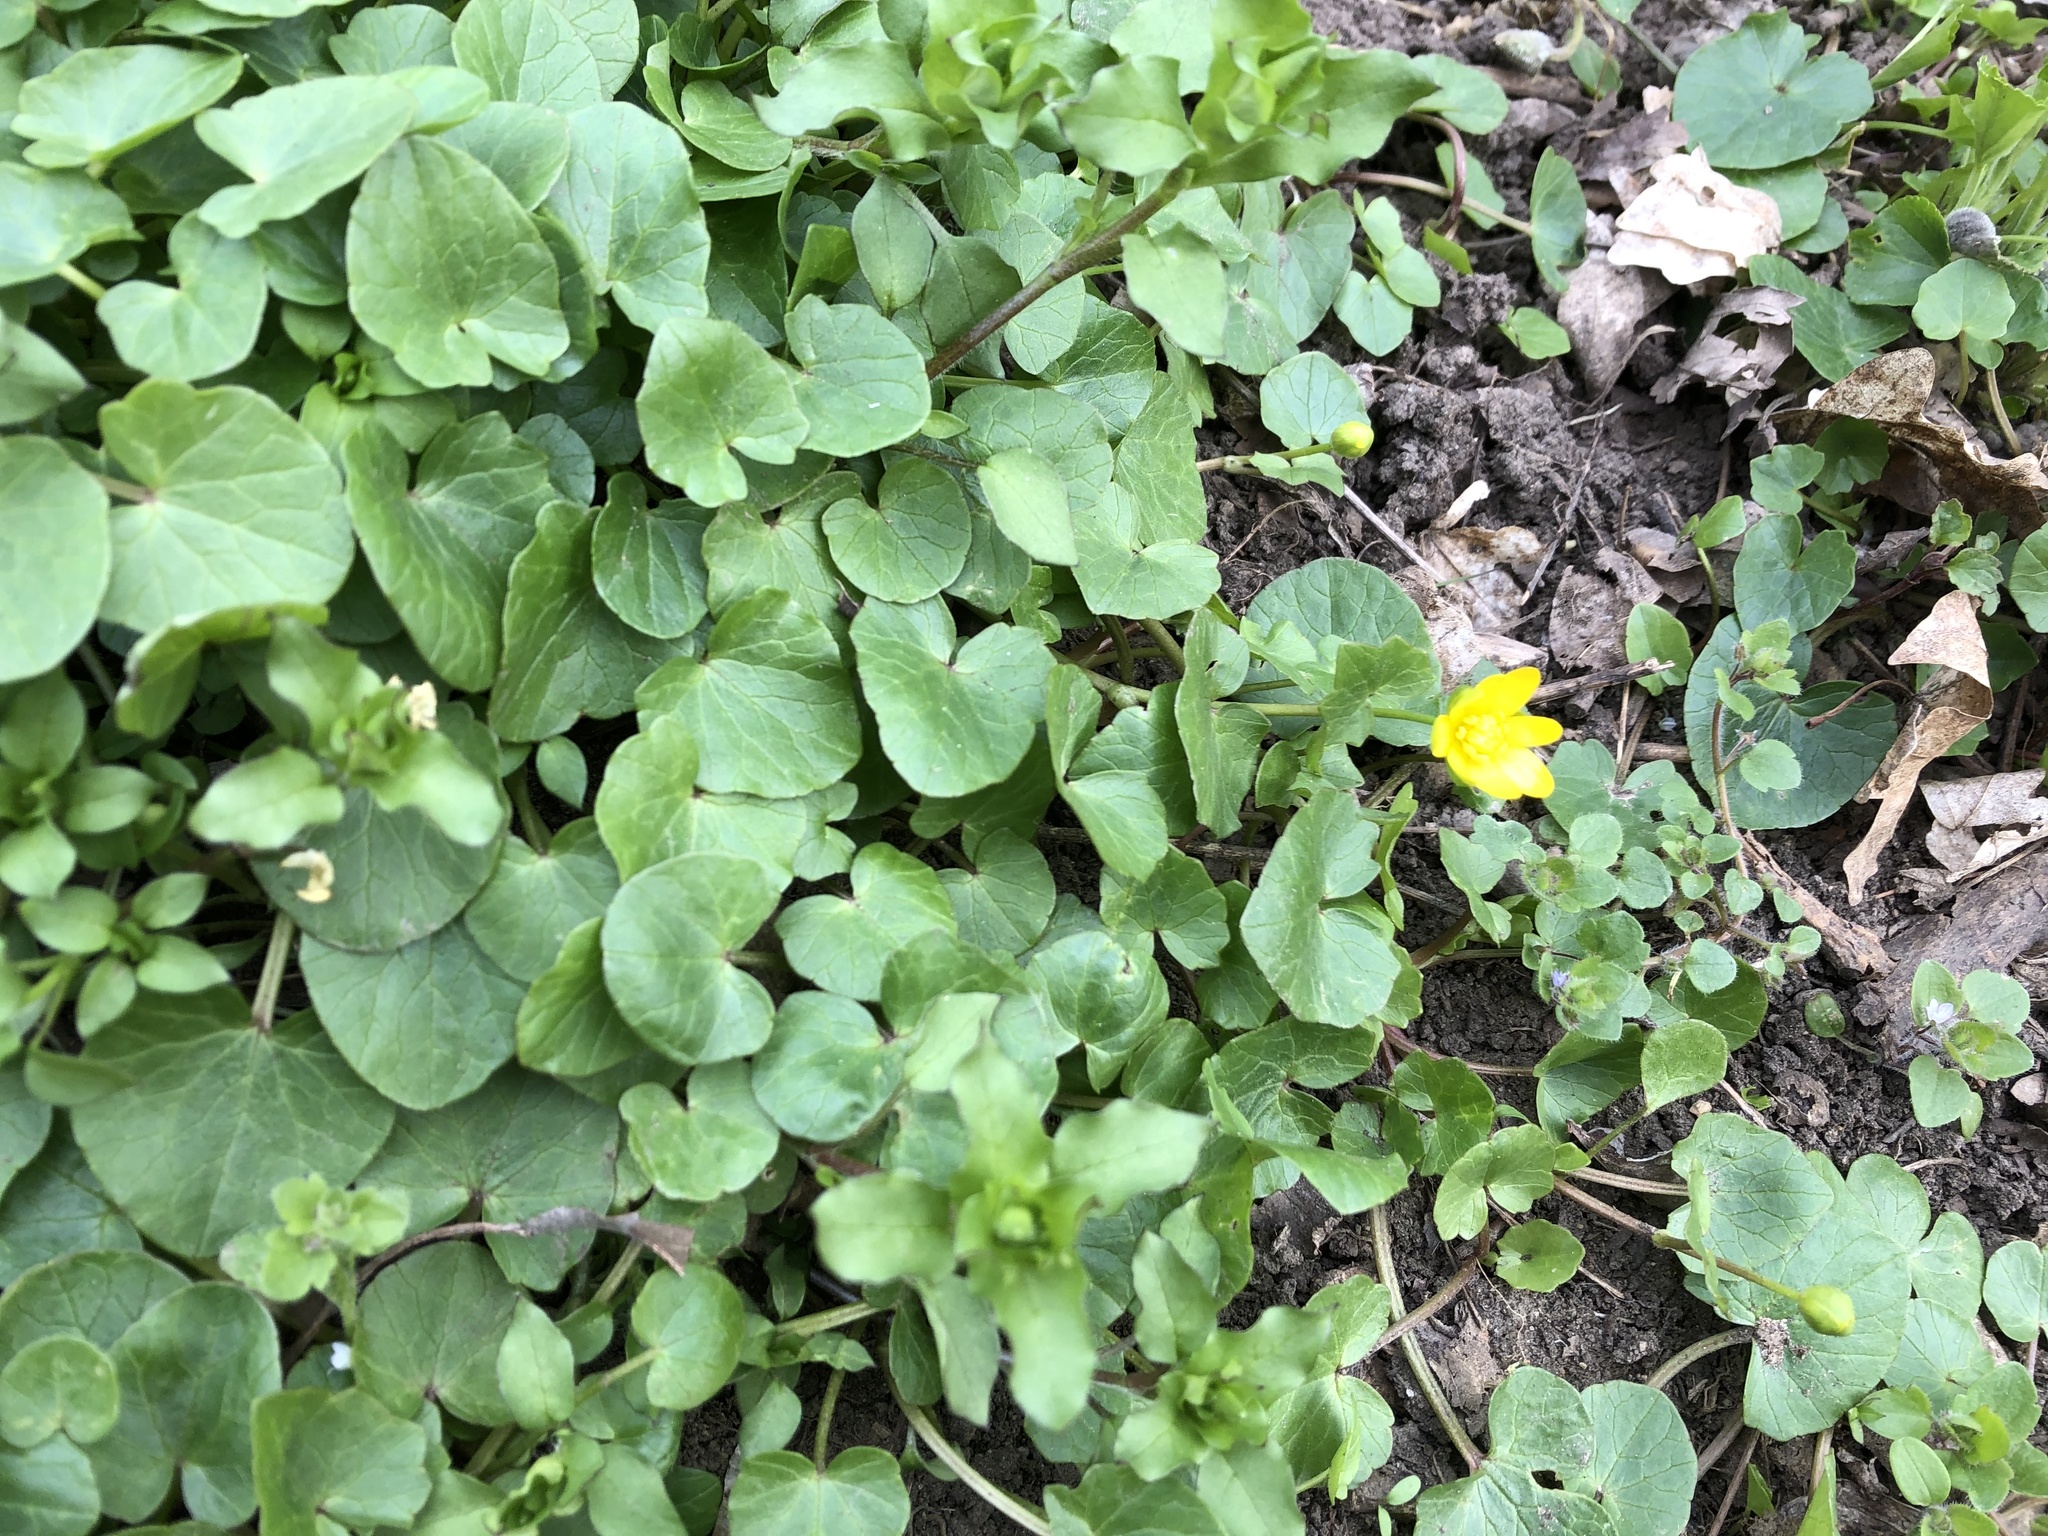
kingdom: Plantae
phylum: Tracheophyta
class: Magnoliopsida
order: Ranunculales
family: Ranunculaceae
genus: Ficaria
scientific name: Ficaria verna
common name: Lesser celandine
